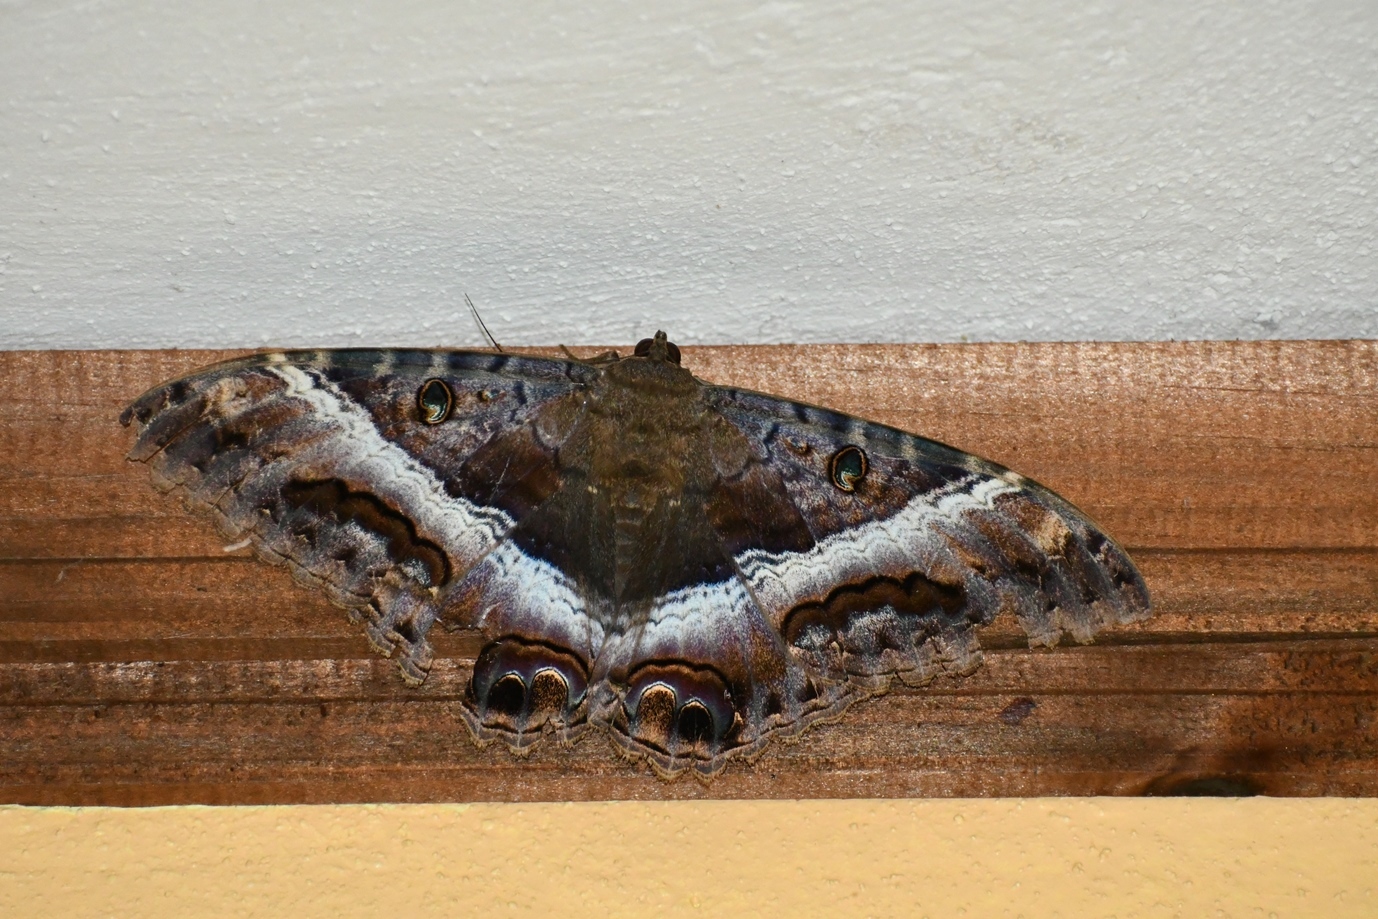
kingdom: Animalia
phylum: Arthropoda
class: Insecta
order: Lepidoptera
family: Erebidae
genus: Ascalapha
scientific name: Ascalapha odorata
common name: Black witch
